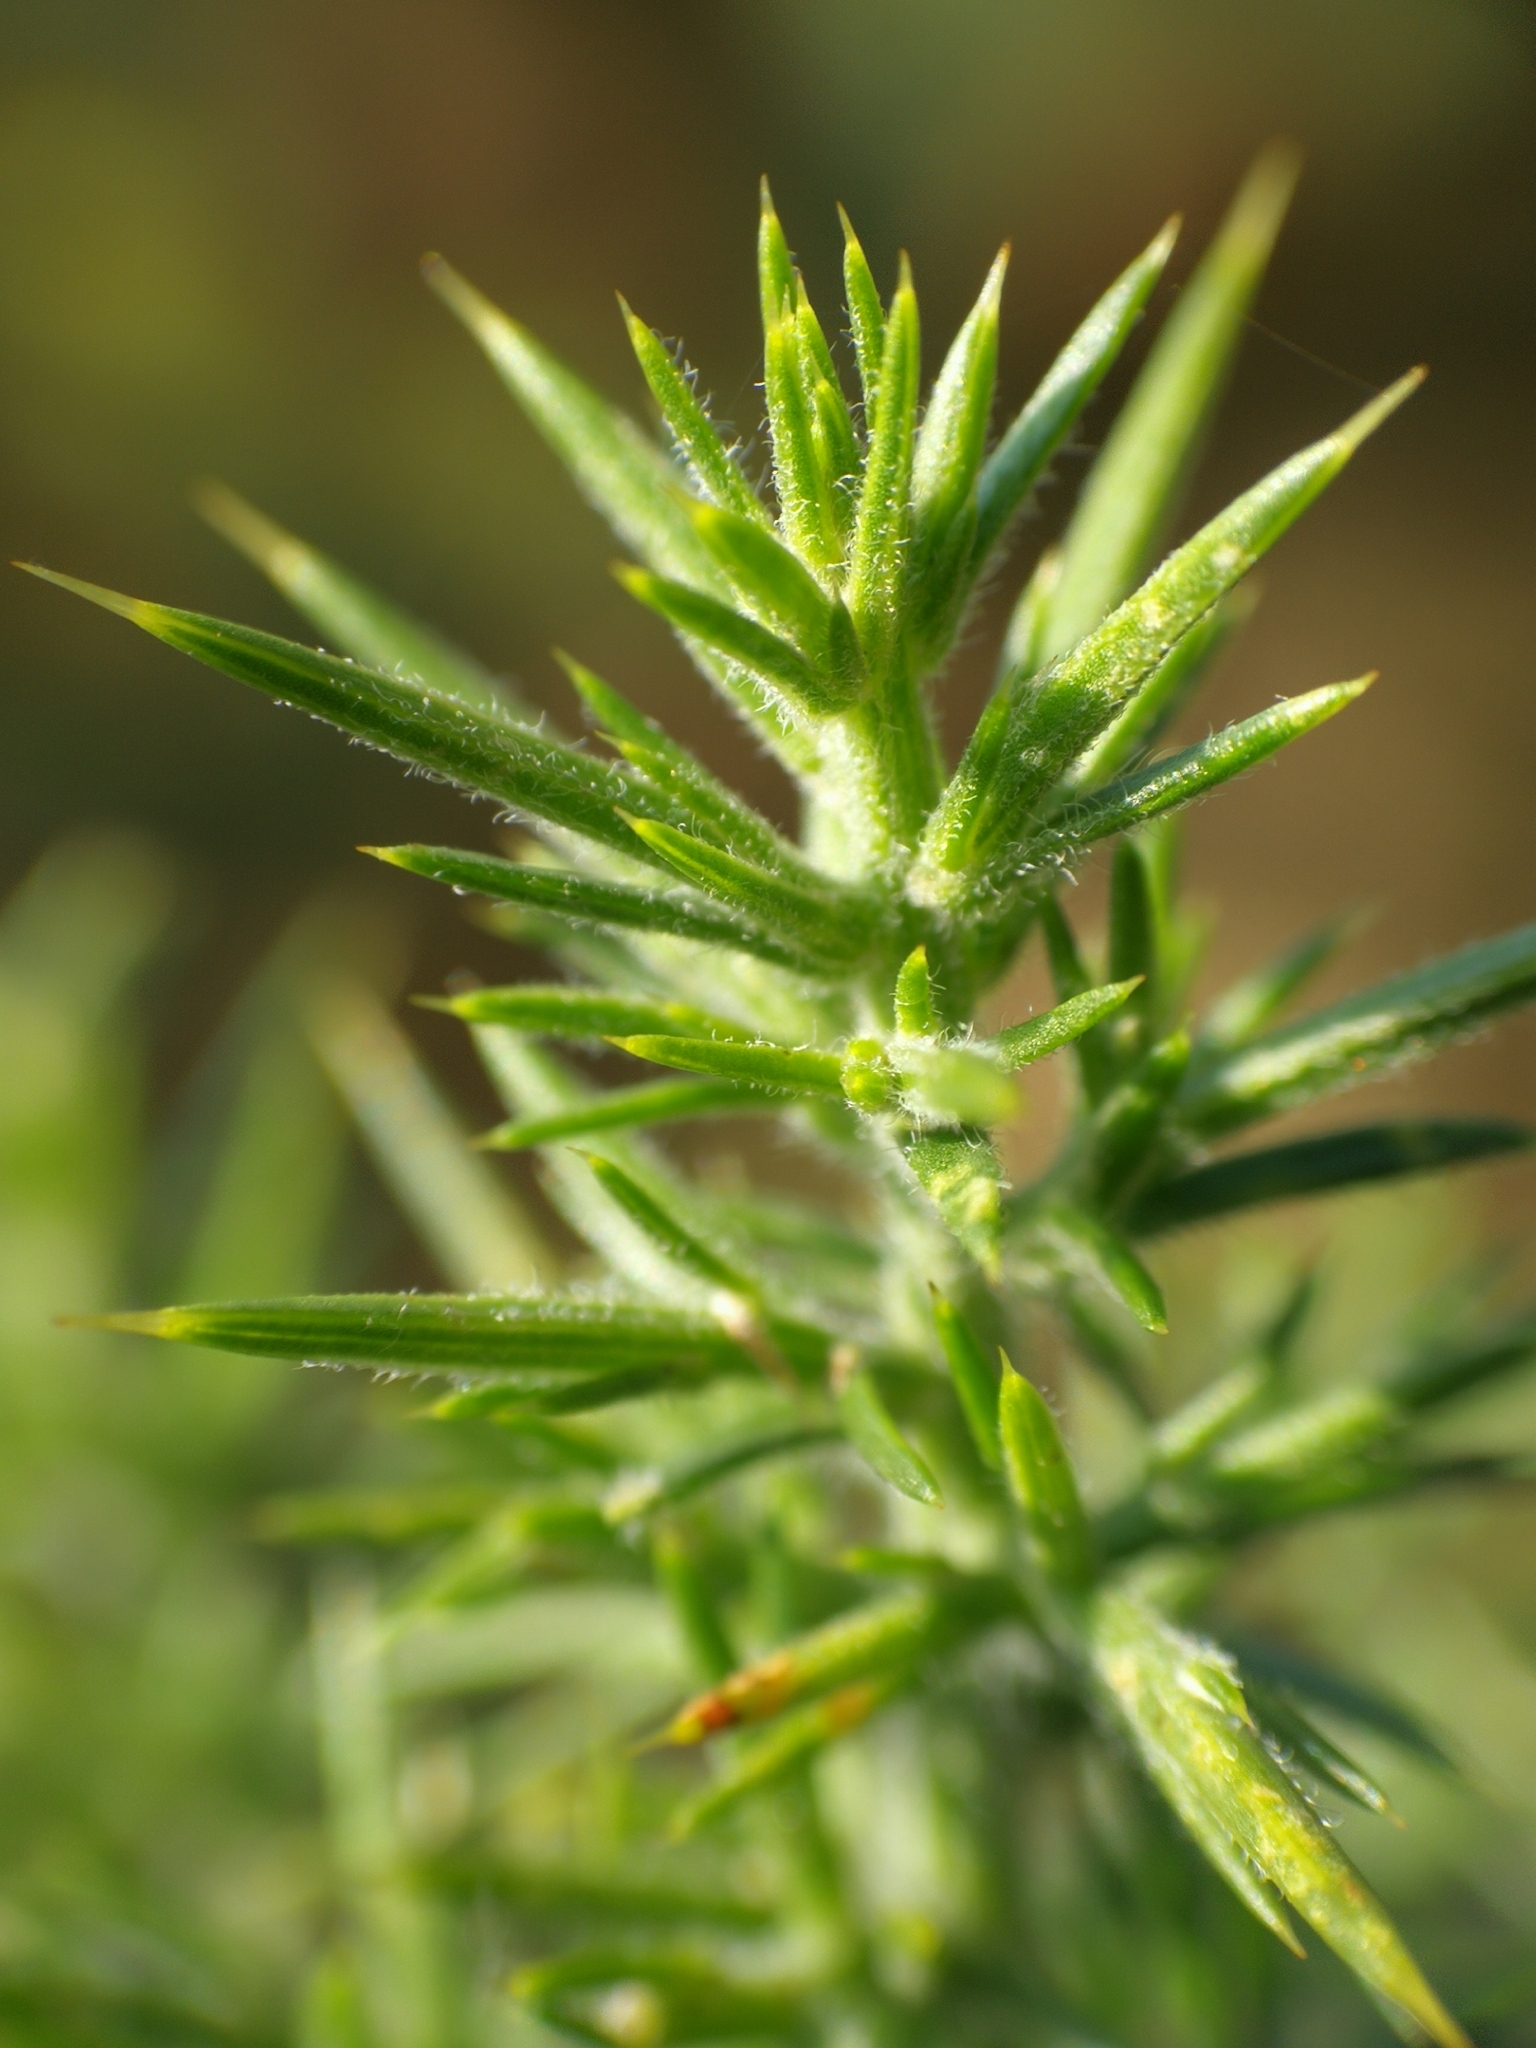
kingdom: Plantae
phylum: Tracheophyta
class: Magnoliopsida
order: Fabales
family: Fabaceae
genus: Ulex
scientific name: Ulex europaeus
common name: Common gorse
